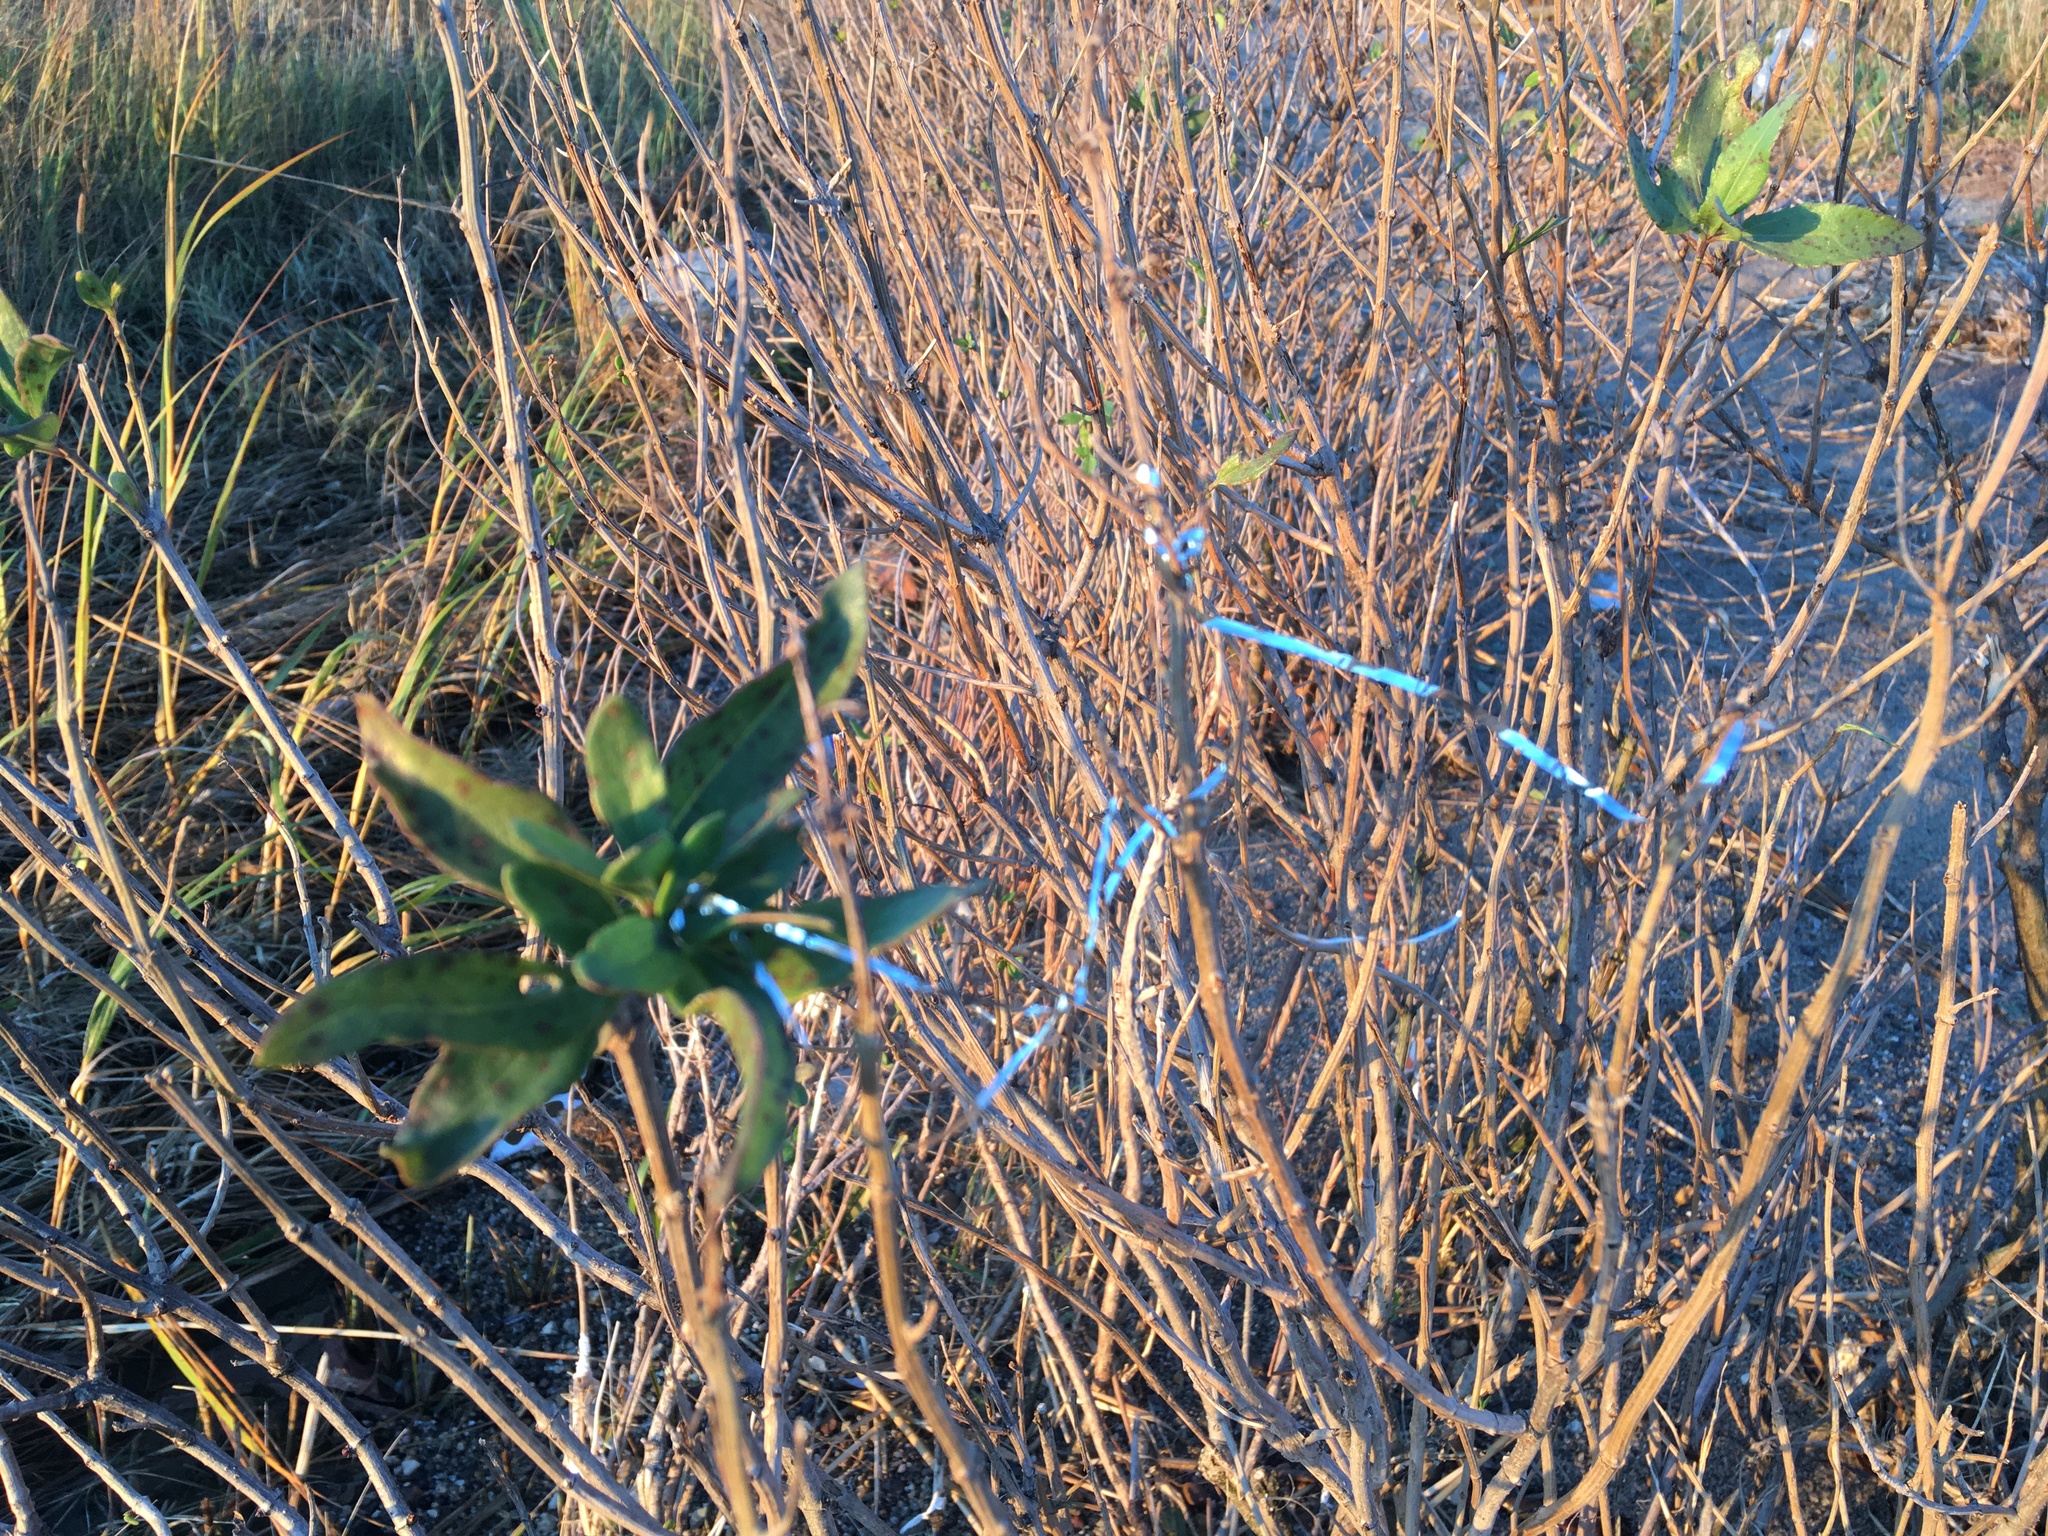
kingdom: Plantae
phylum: Tracheophyta
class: Magnoliopsida
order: Asterales
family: Asteraceae
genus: Iva
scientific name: Iva frutescens
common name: Big-leaved marsh-elder
